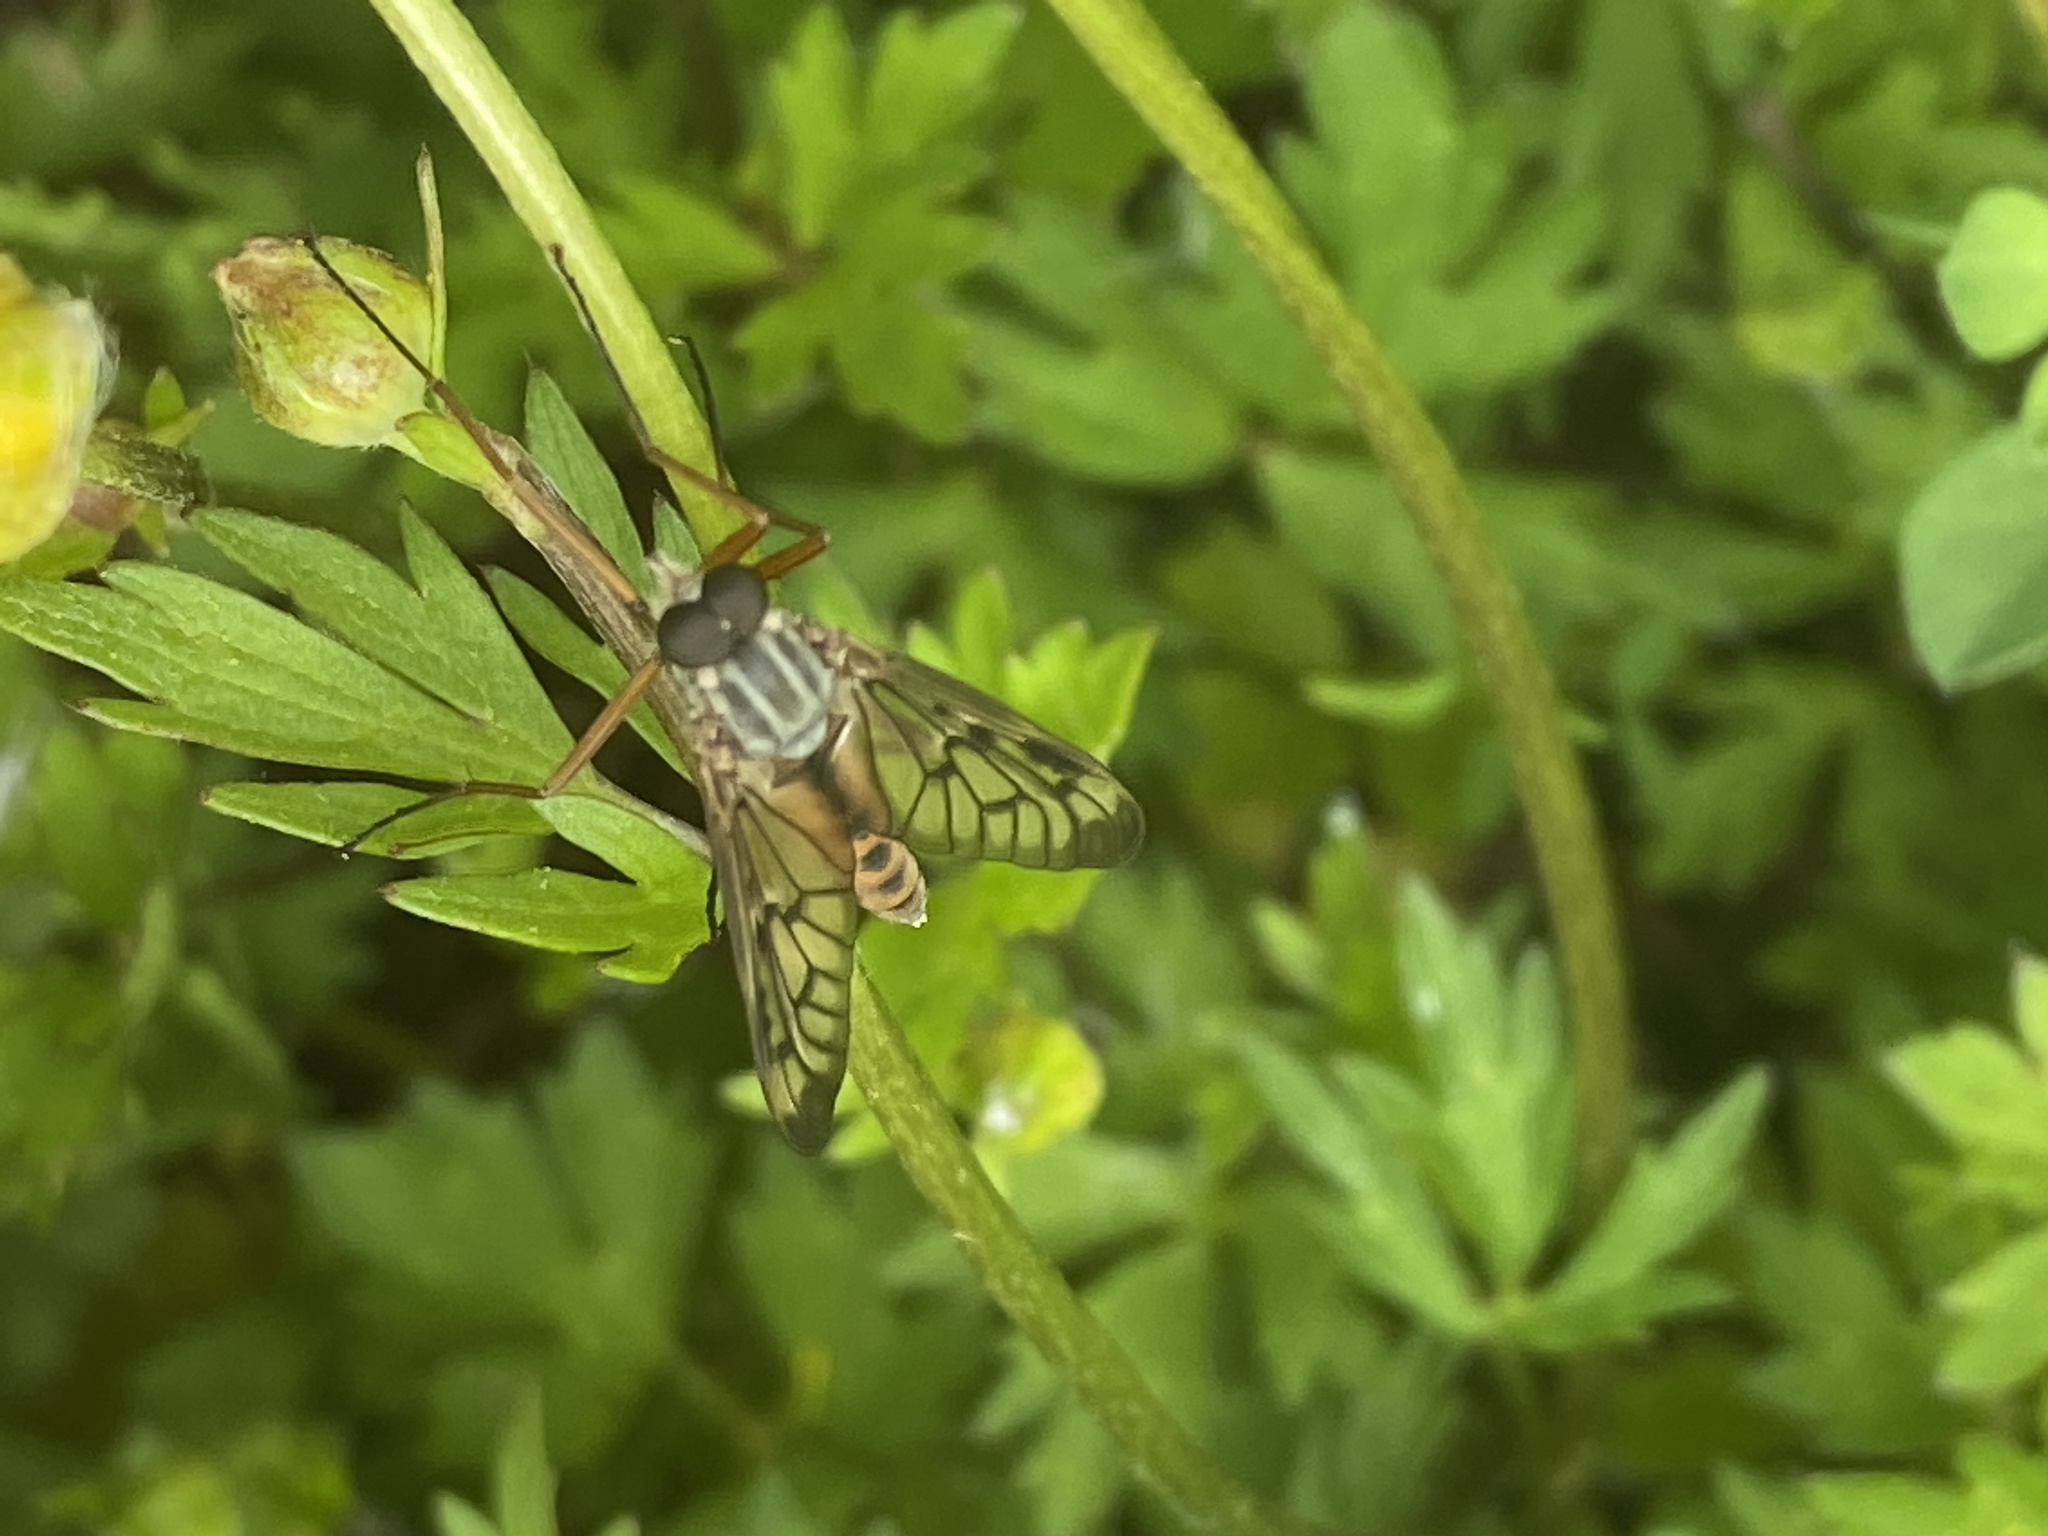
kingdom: Animalia
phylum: Arthropoda
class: Insecta
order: Diptera
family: Rhagionidae
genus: Rhagio
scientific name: Rhagio scolopacea
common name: Downlooker snipefly
